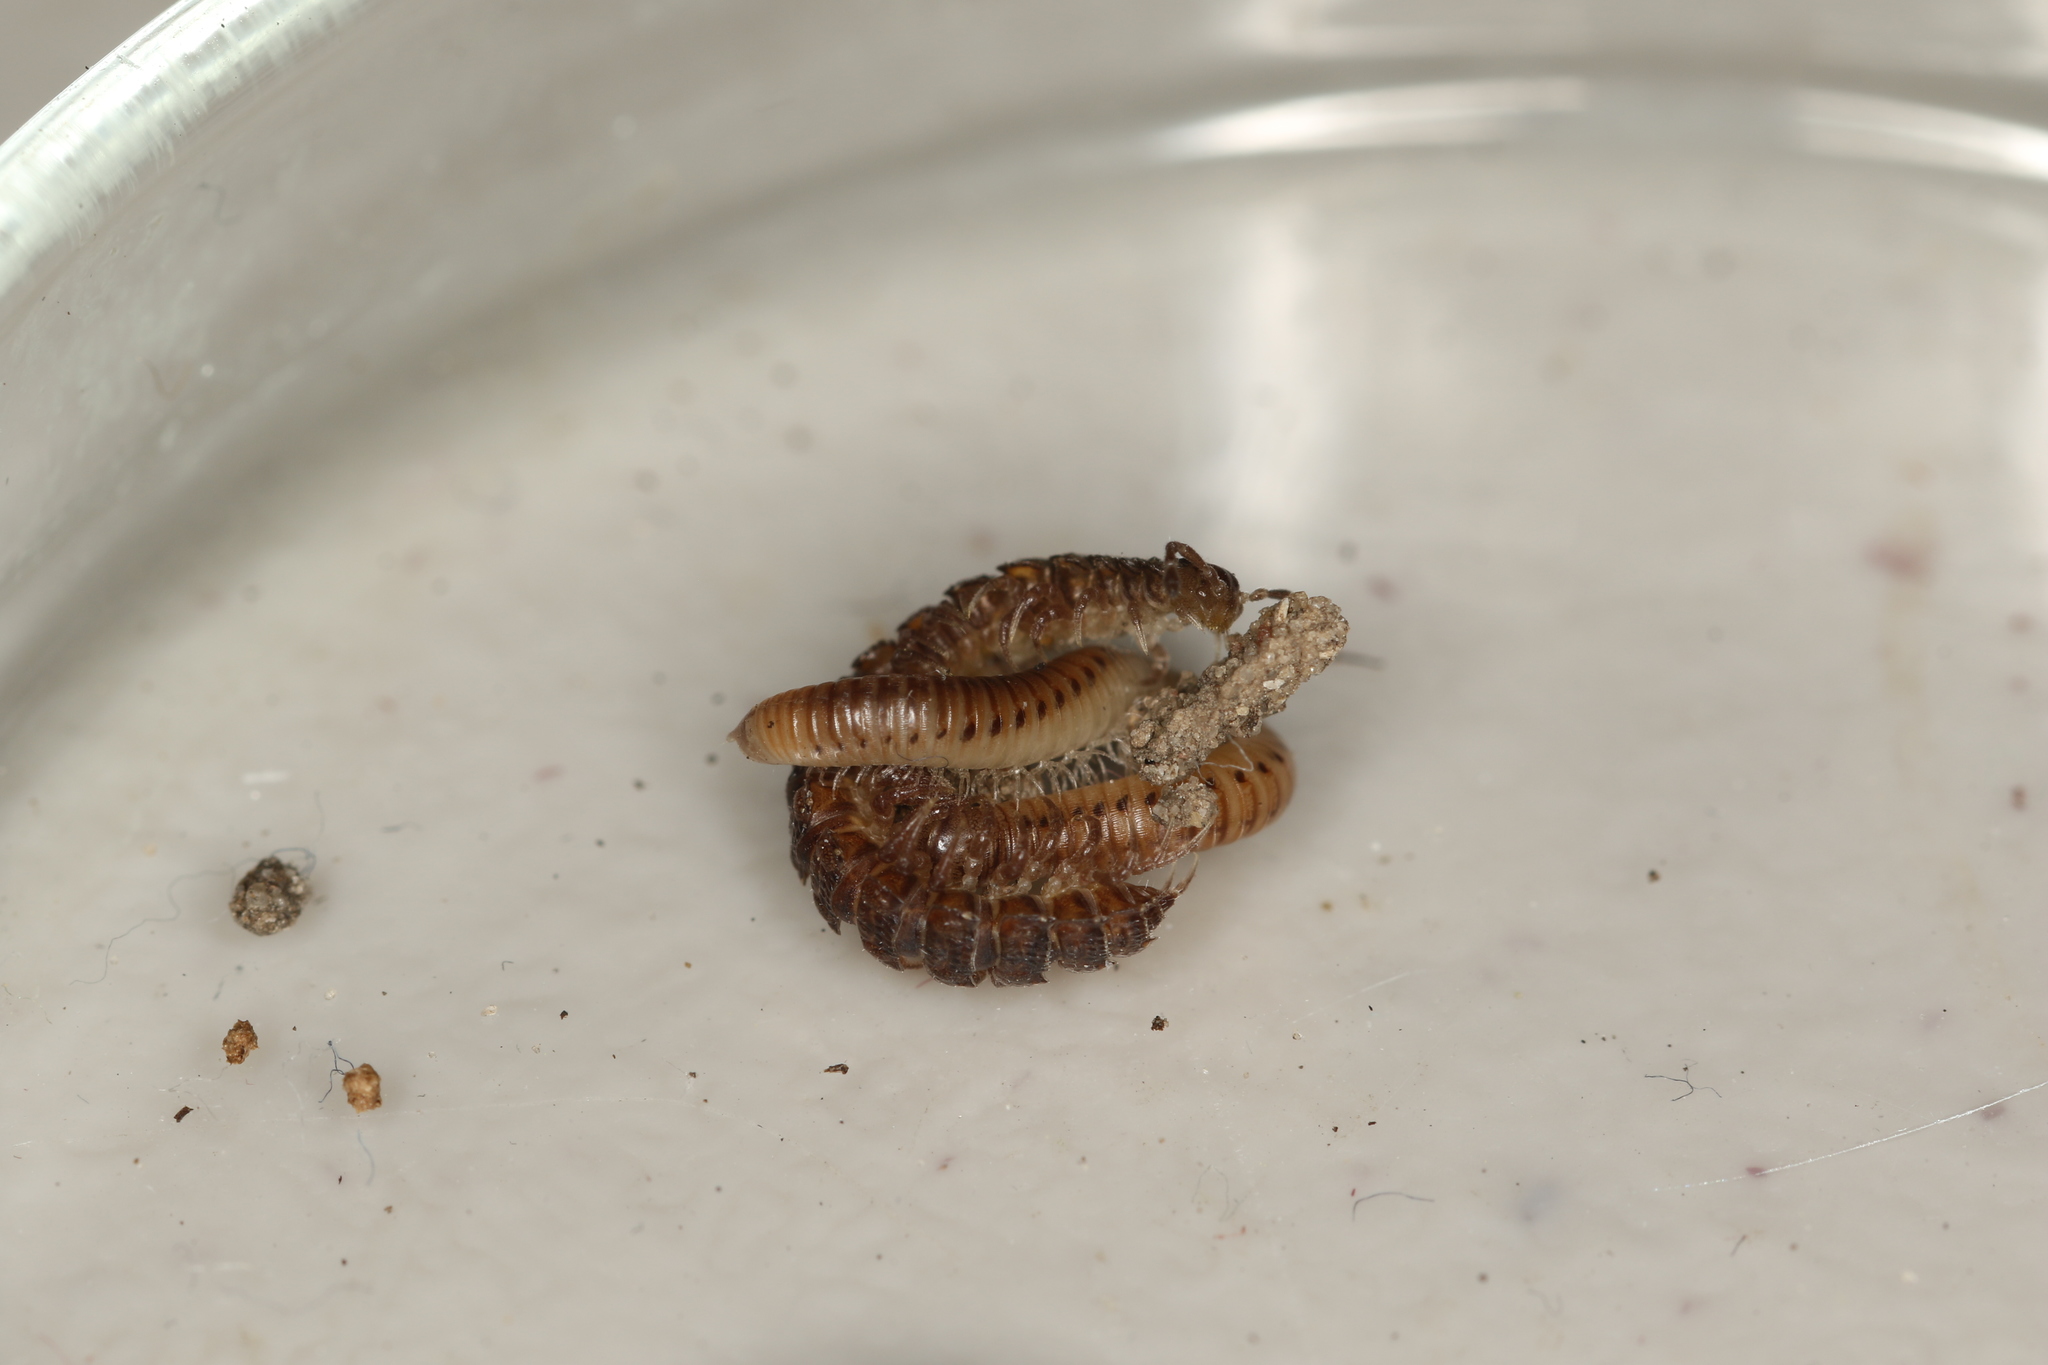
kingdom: Animalia
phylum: Arthropoda
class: Diplopoda
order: Polydesmida
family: Polydesmidae
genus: Polydesmus
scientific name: Polydesmus inconstans
